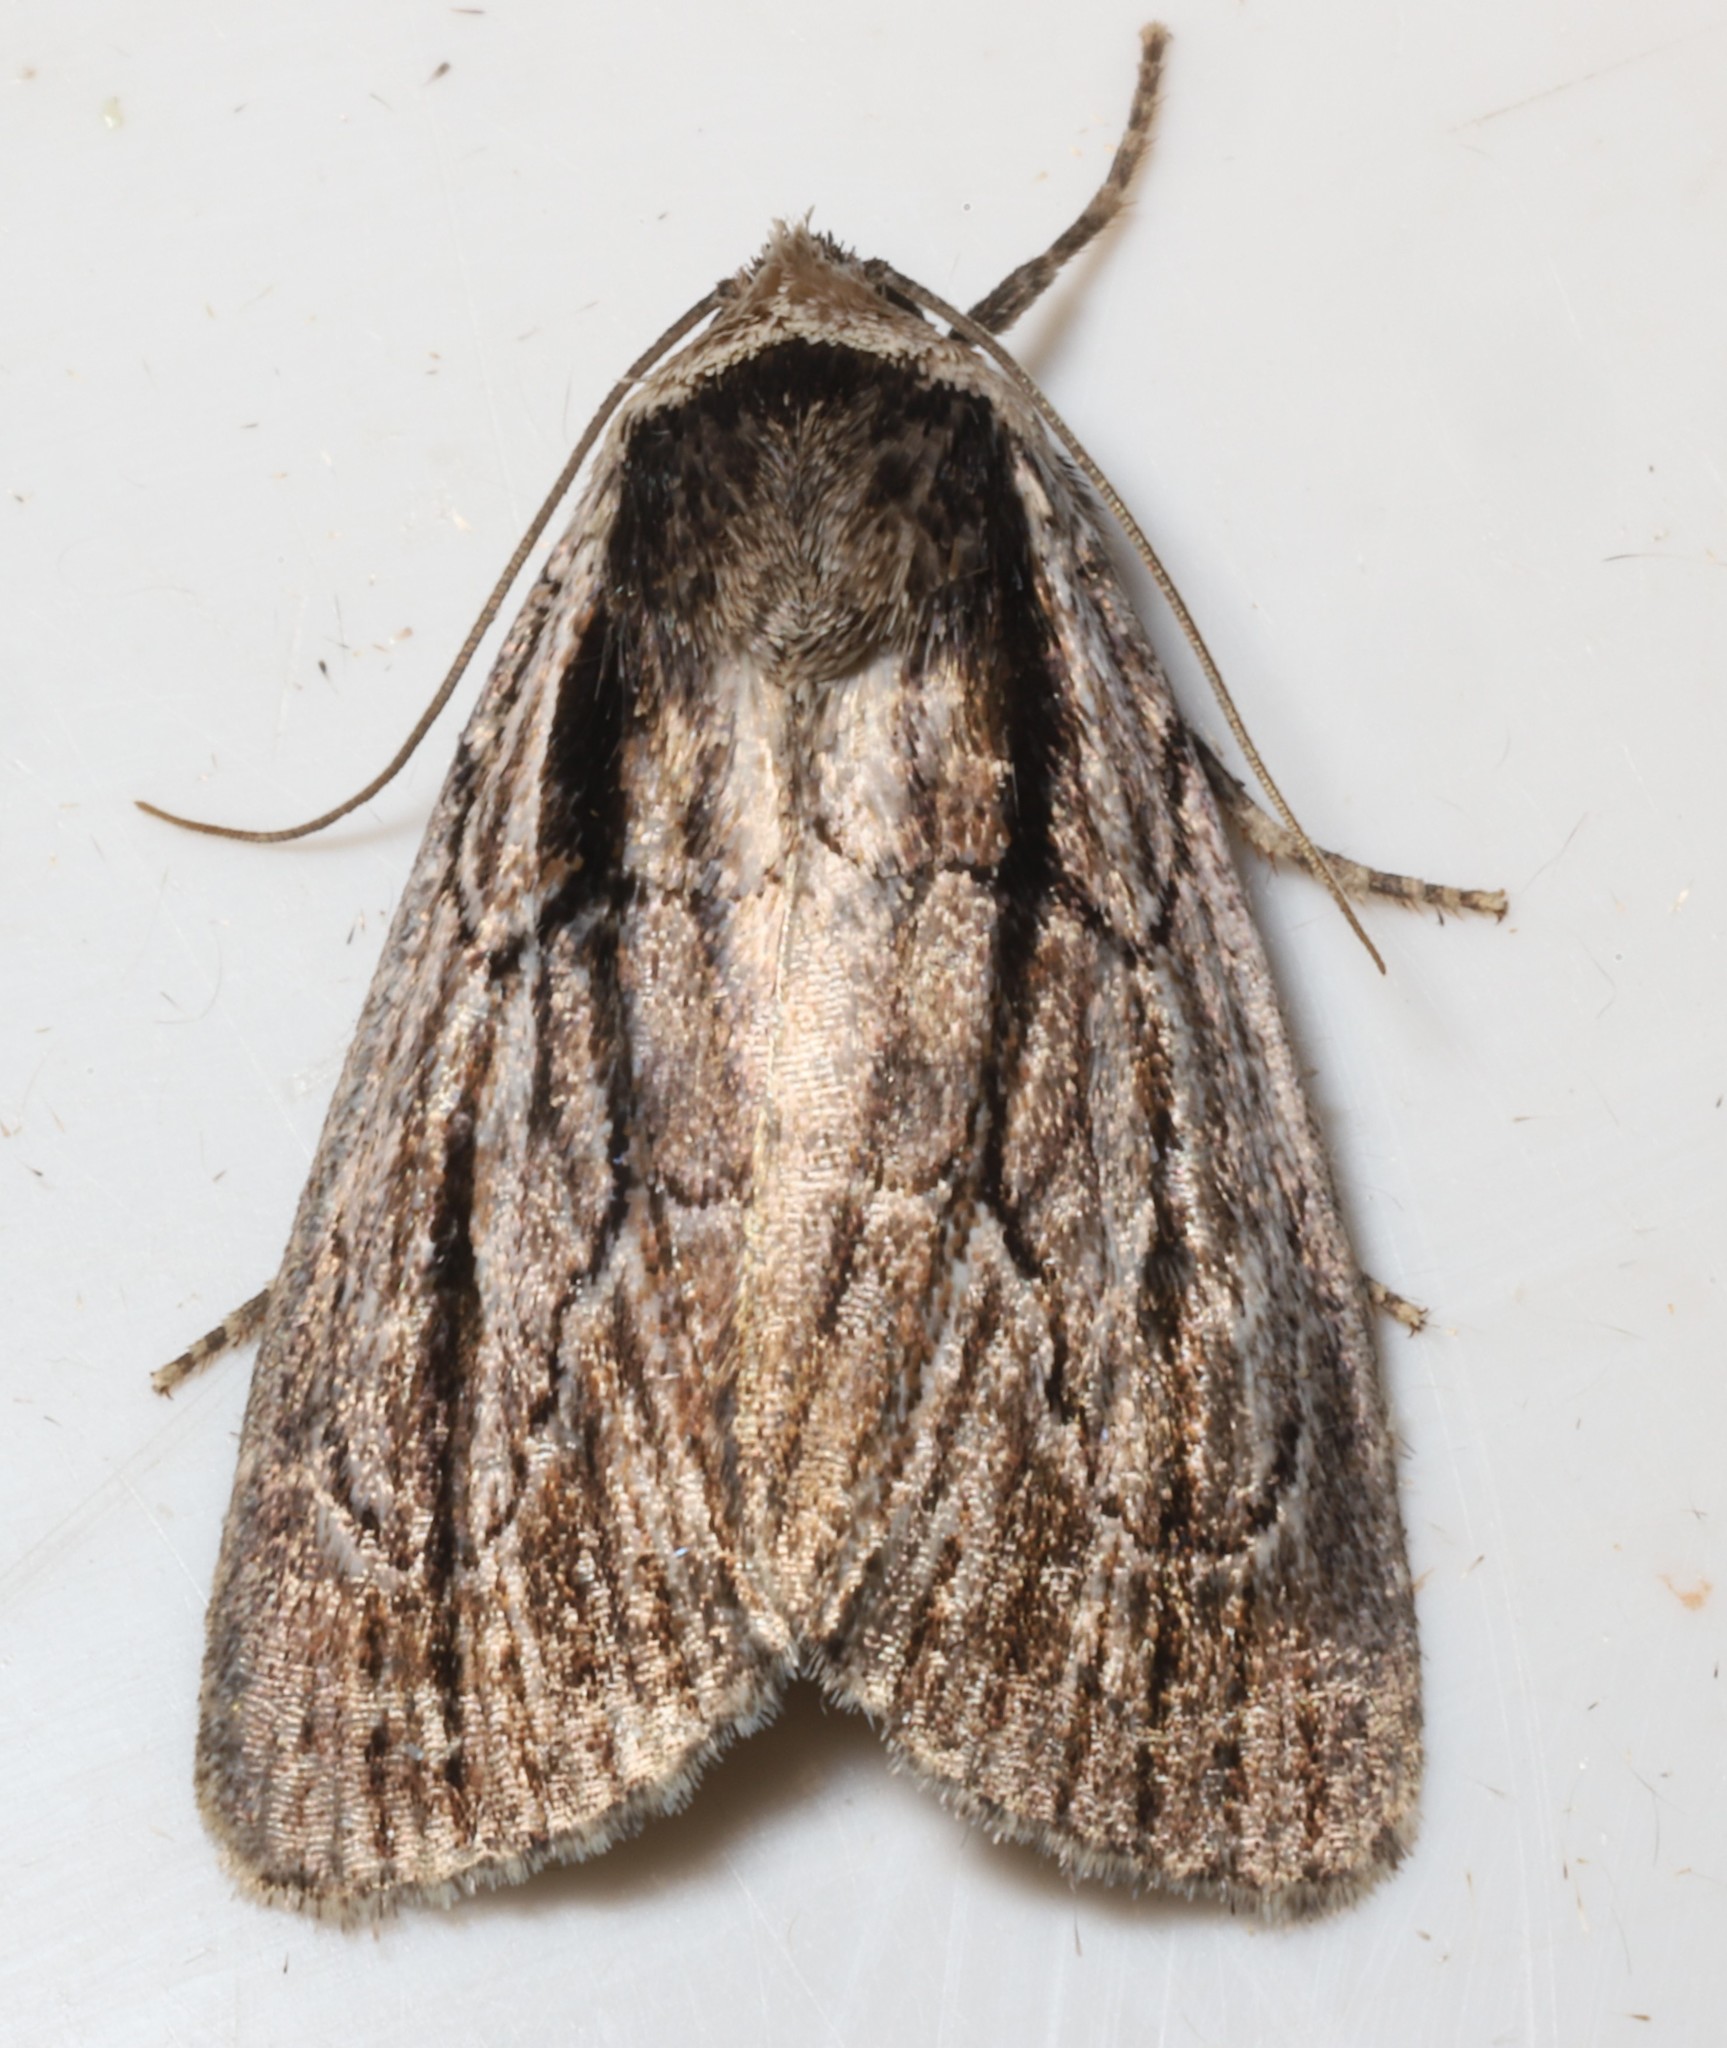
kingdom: Animalia
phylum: Arthropoda
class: Insecta
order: Lepidoptera
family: Noctuidae
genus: Sympistis
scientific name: Sympistis badistriga
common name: Brown-lined sallow moth
